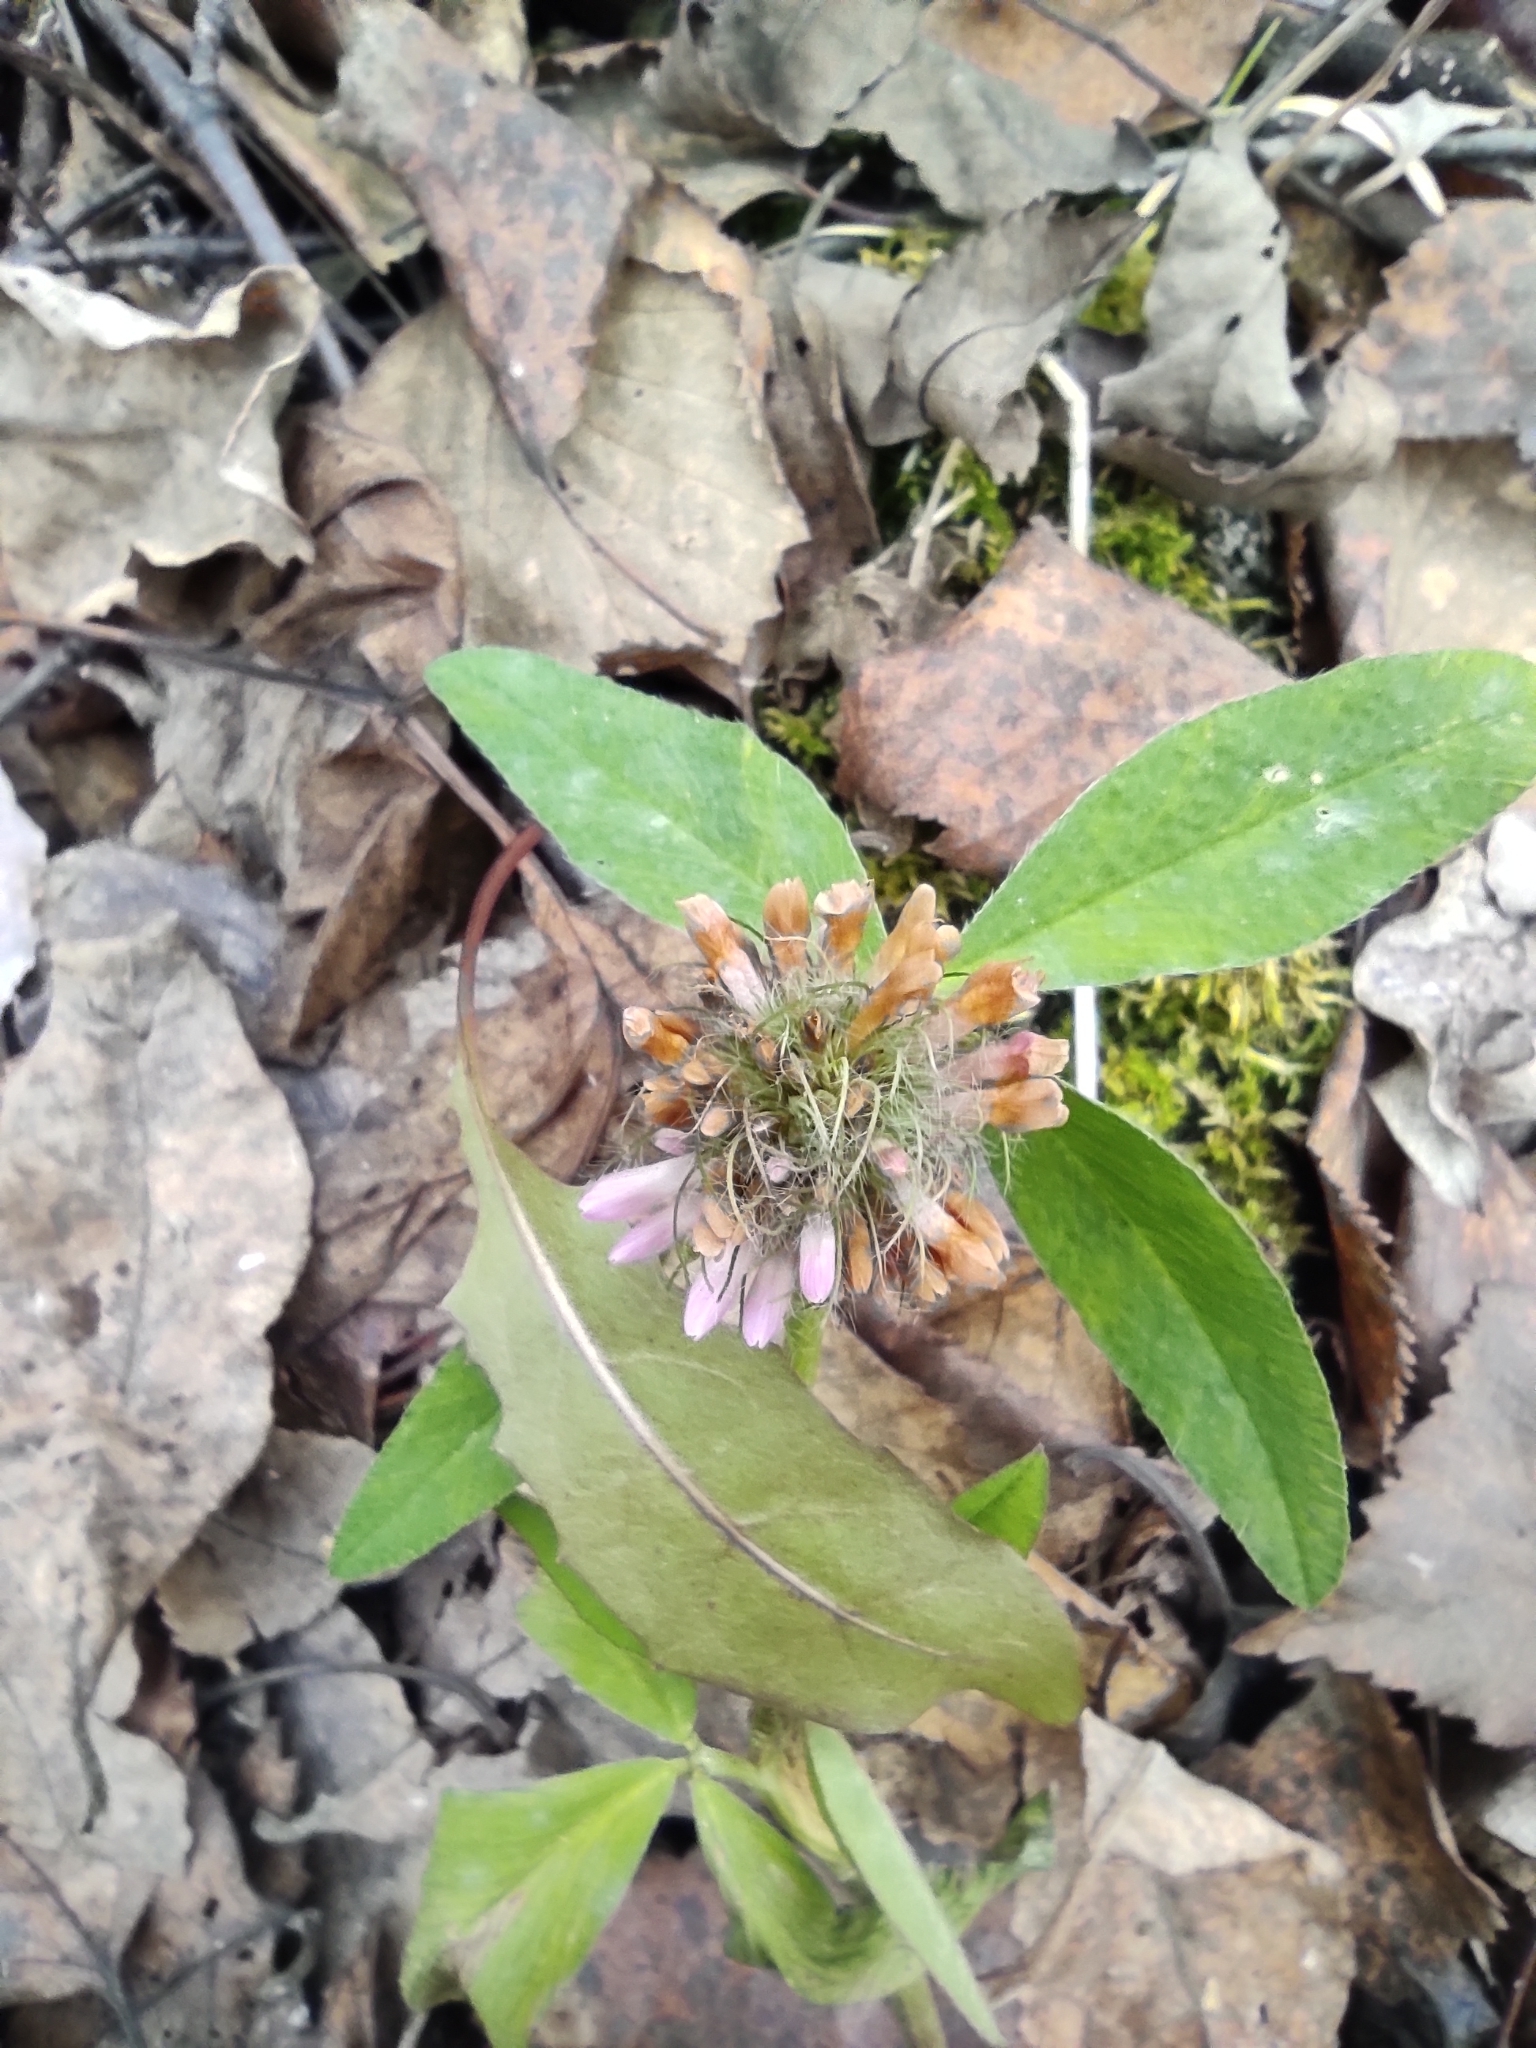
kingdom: Plantae
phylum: Tracheophyta
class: Magnoliopsida
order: Fabales
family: Fabaceae
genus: Trifolium
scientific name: Trifolium pratense
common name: Red clover
